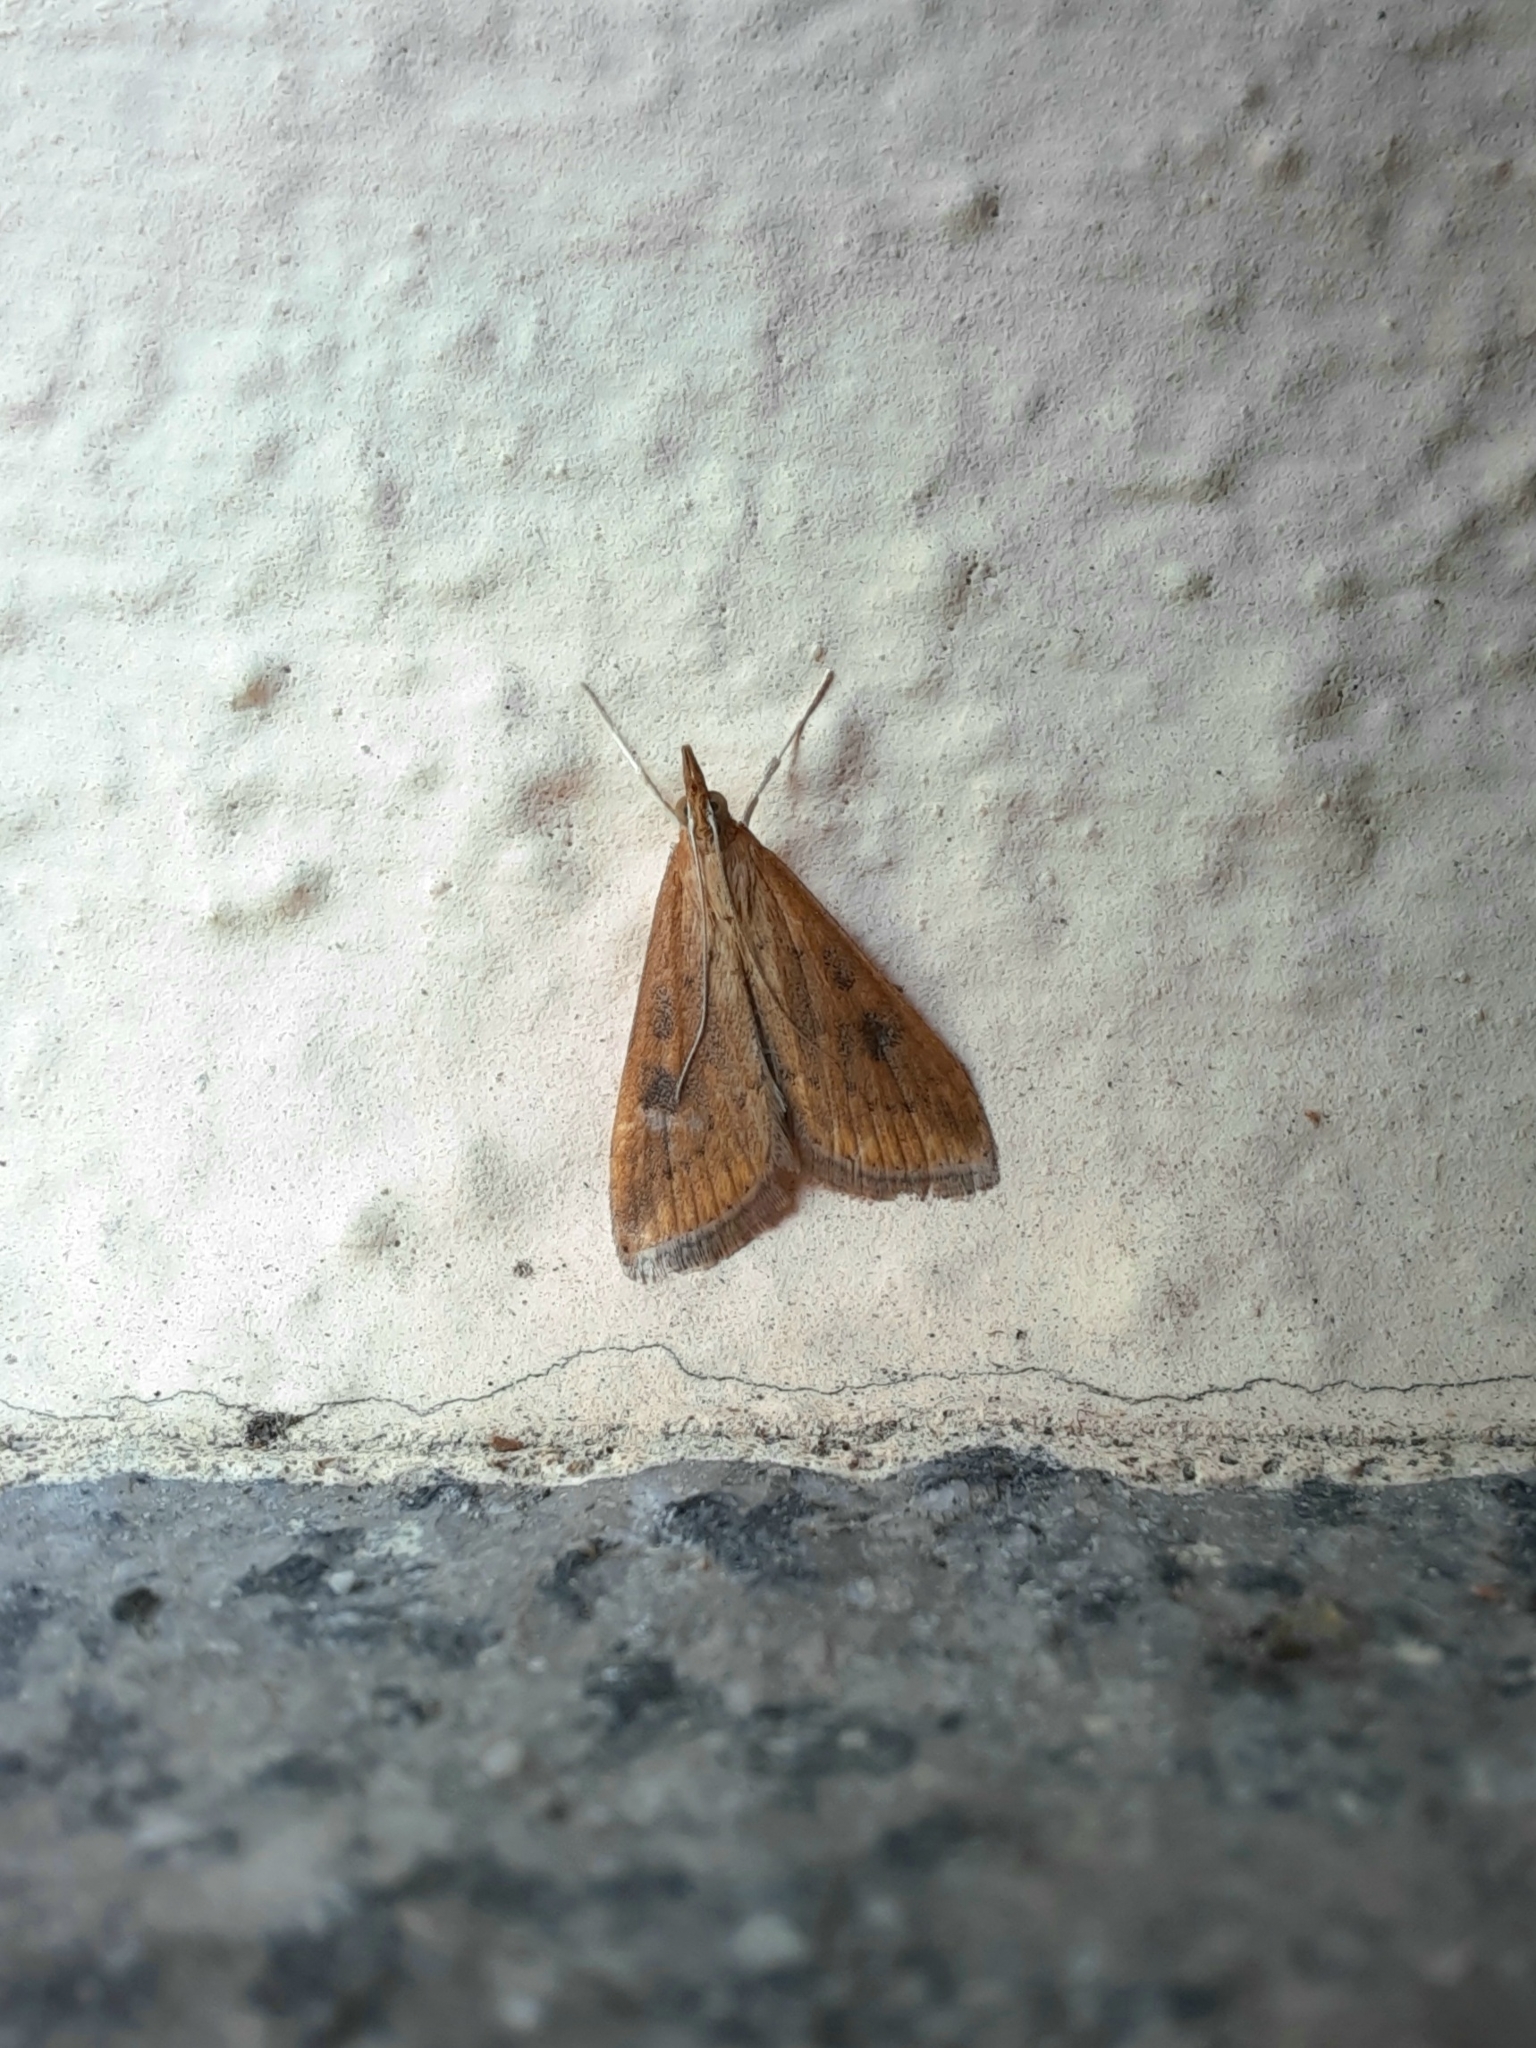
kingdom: Animalia
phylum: Arthropoda
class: Insecta
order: Lepidoptera
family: Crambidae
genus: Udea
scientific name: Udea ferrugalis
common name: Rusty dot
